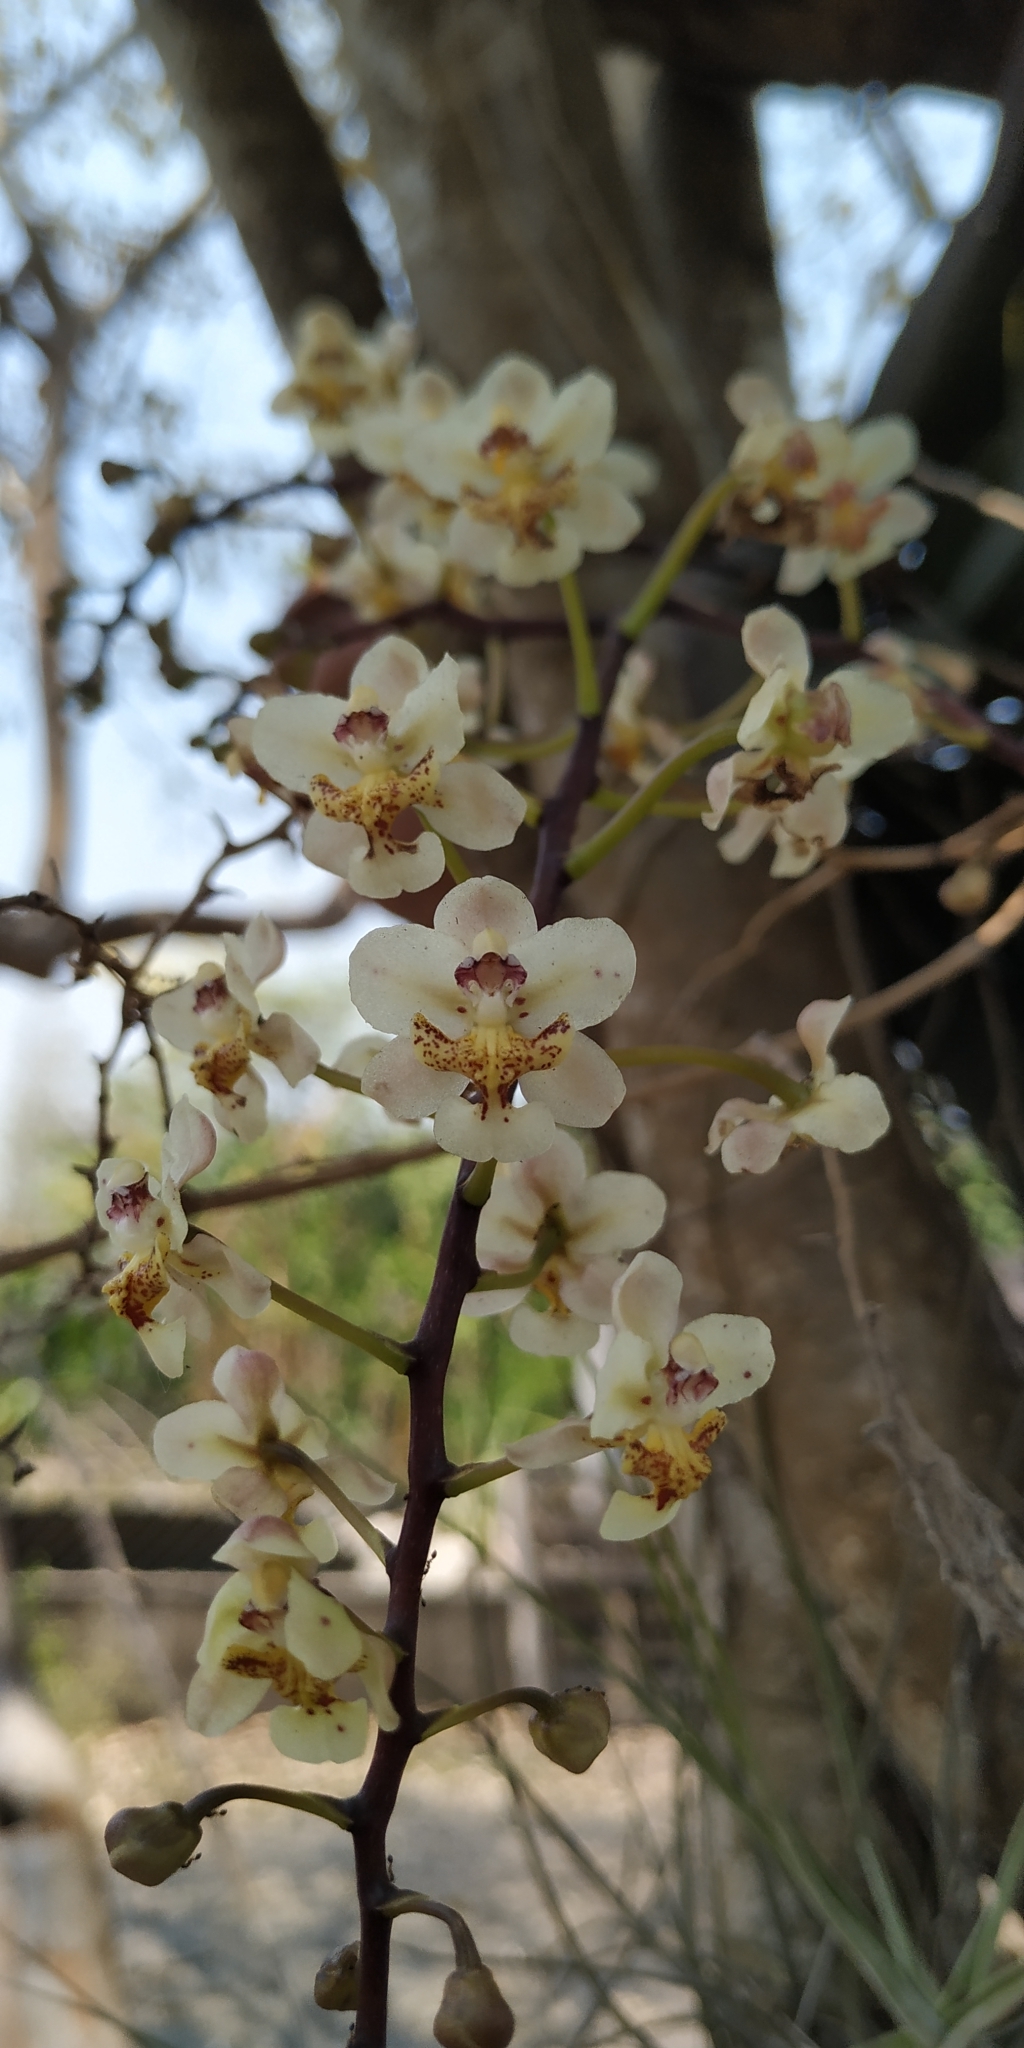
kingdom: Plantae
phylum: Tracheophyta
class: Liliopsida
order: Asparagales
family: Orchidaceae
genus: Trichocentrum
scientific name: Trichocentrum stramineum
